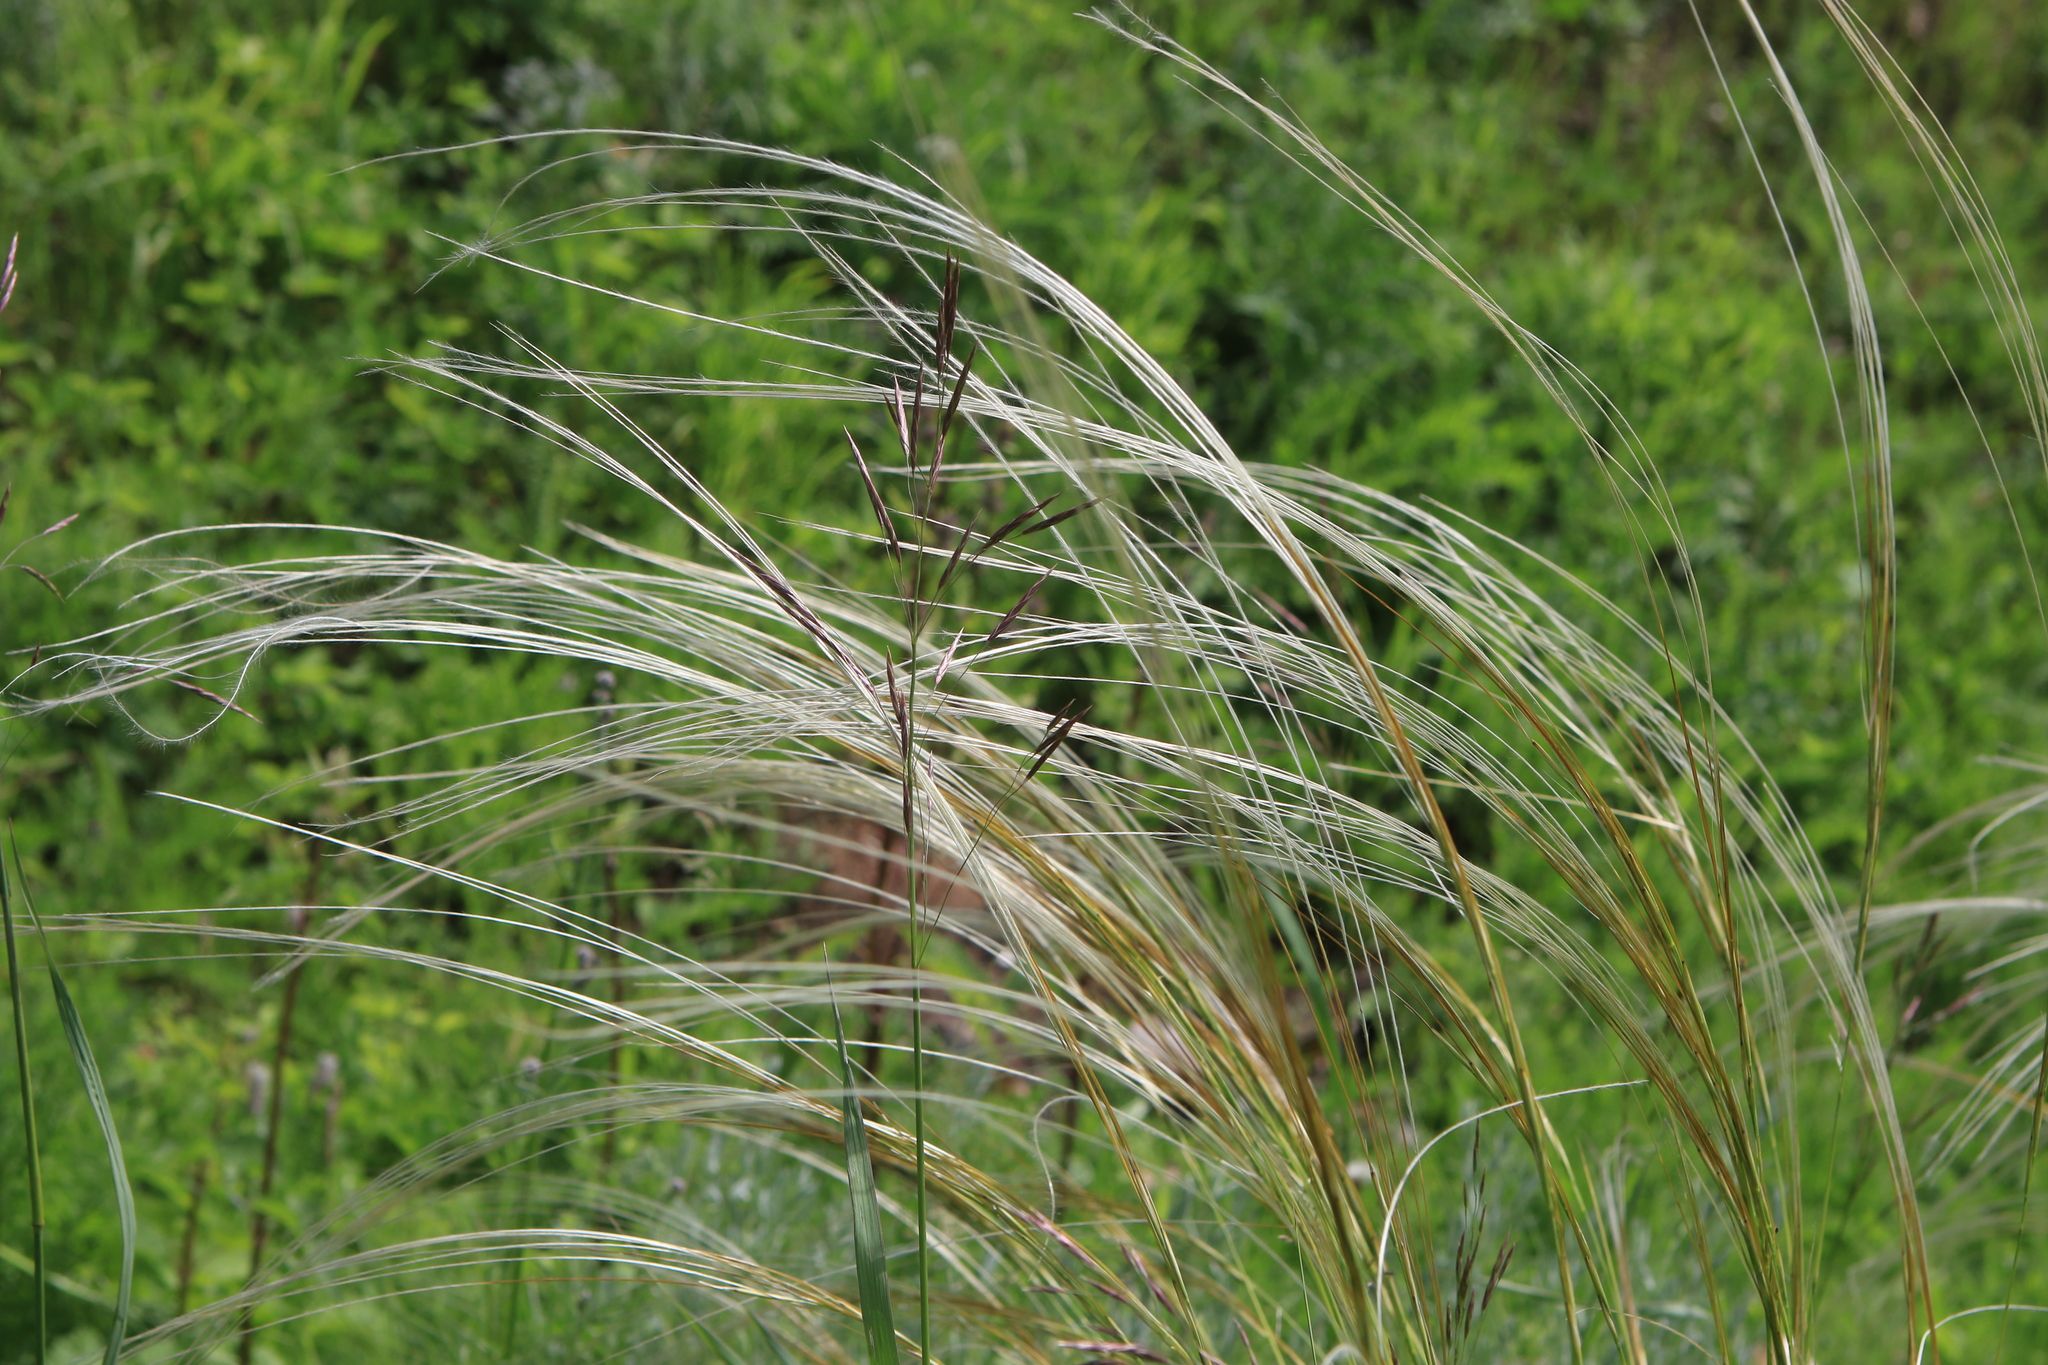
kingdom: Plantae
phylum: Tracheophyta
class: Liliopsida
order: Poales
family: Poaceae
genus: Stipa
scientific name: Stipa pennata
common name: European feather grass
